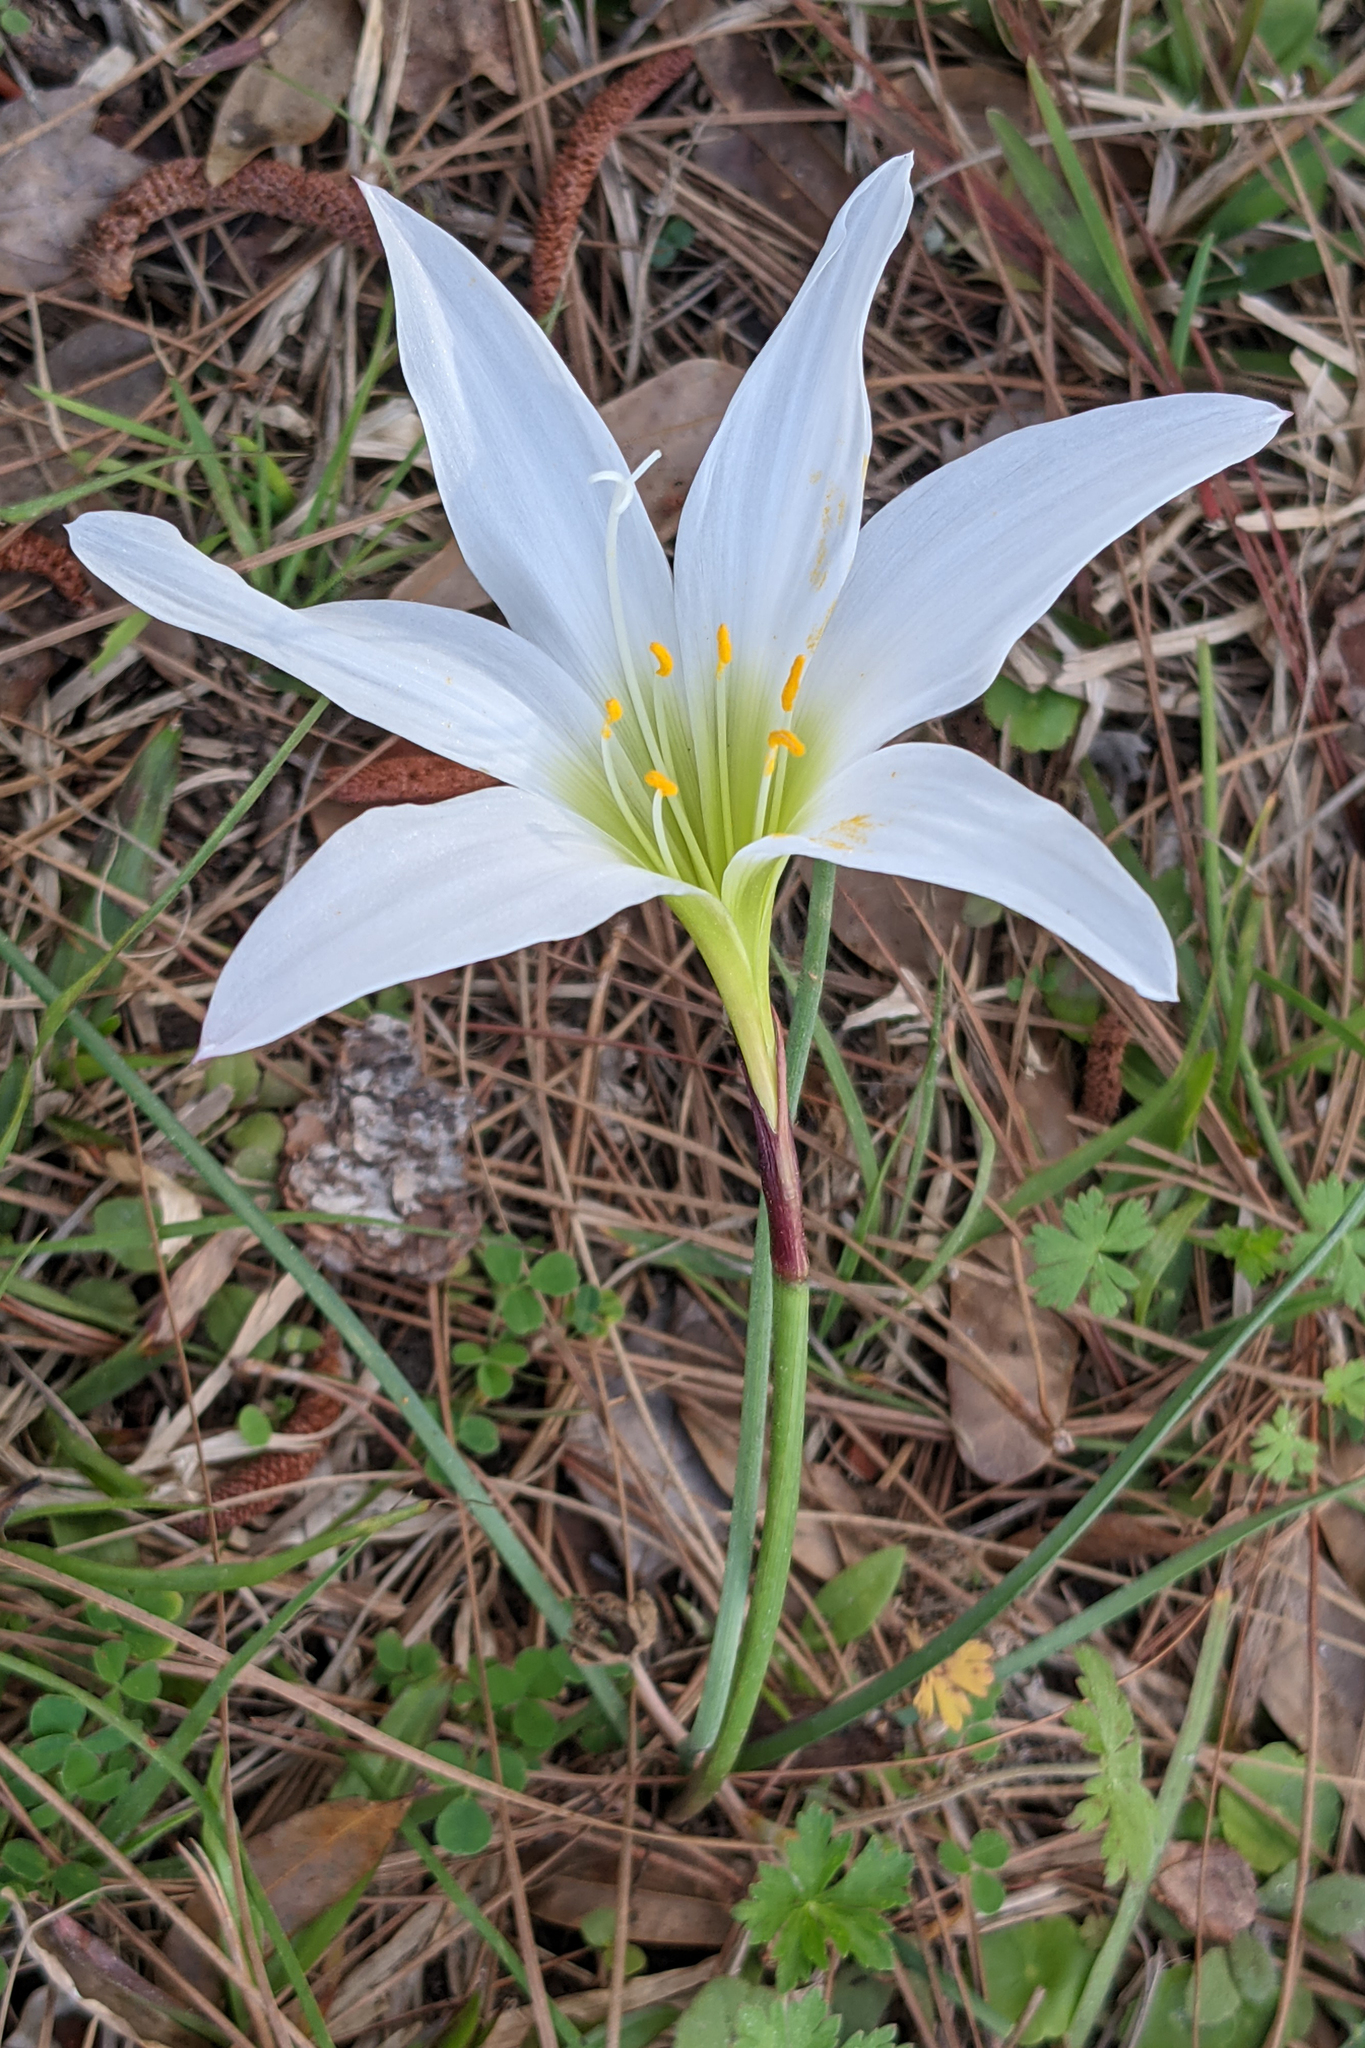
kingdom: Plantae
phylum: Tracheophyta
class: Liliopsida
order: Asparagales
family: Amaryllidaceae
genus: Zephyranthes
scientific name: Zephyranthes atamasco
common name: Atamasco lily
